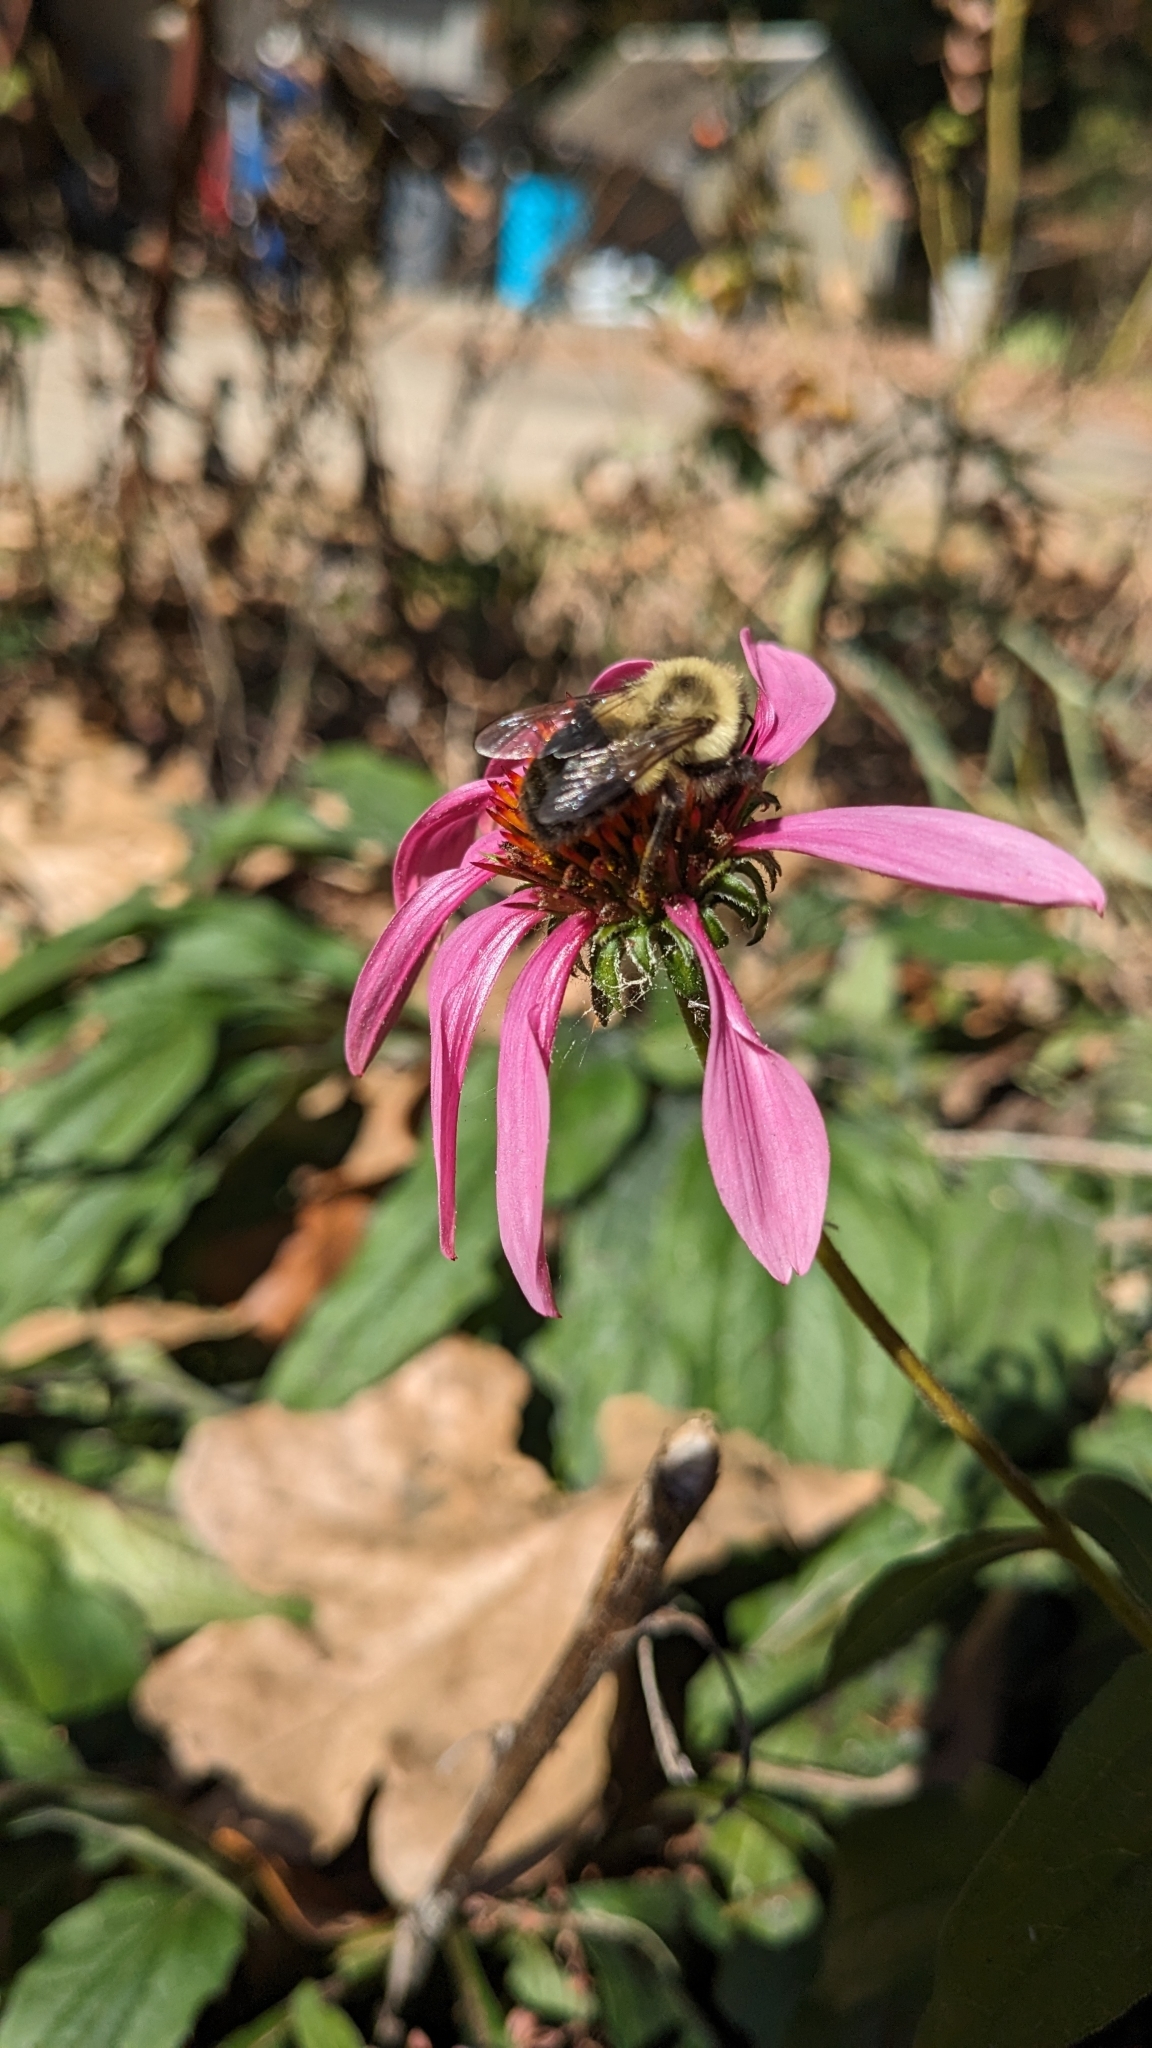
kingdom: Animalia
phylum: Arthropoda
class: Insecta
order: Hymenoptera
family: Apidae
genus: Bombus
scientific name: Bombus impatiens
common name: Common eastern bumble bee
